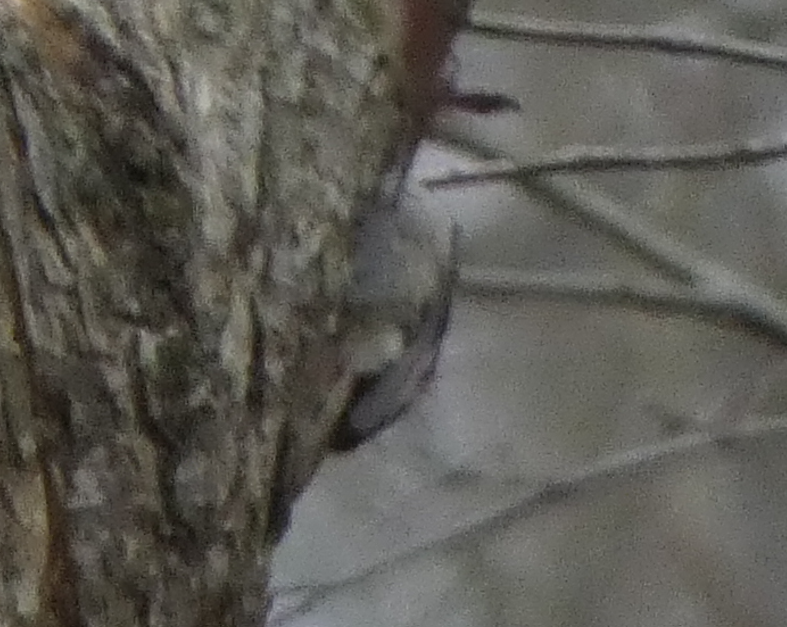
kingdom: Animalia
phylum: Chordata
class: Aves
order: Passeriformes
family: Certhiidae
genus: Certhia
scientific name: Certhia americana
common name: Brown creeper
